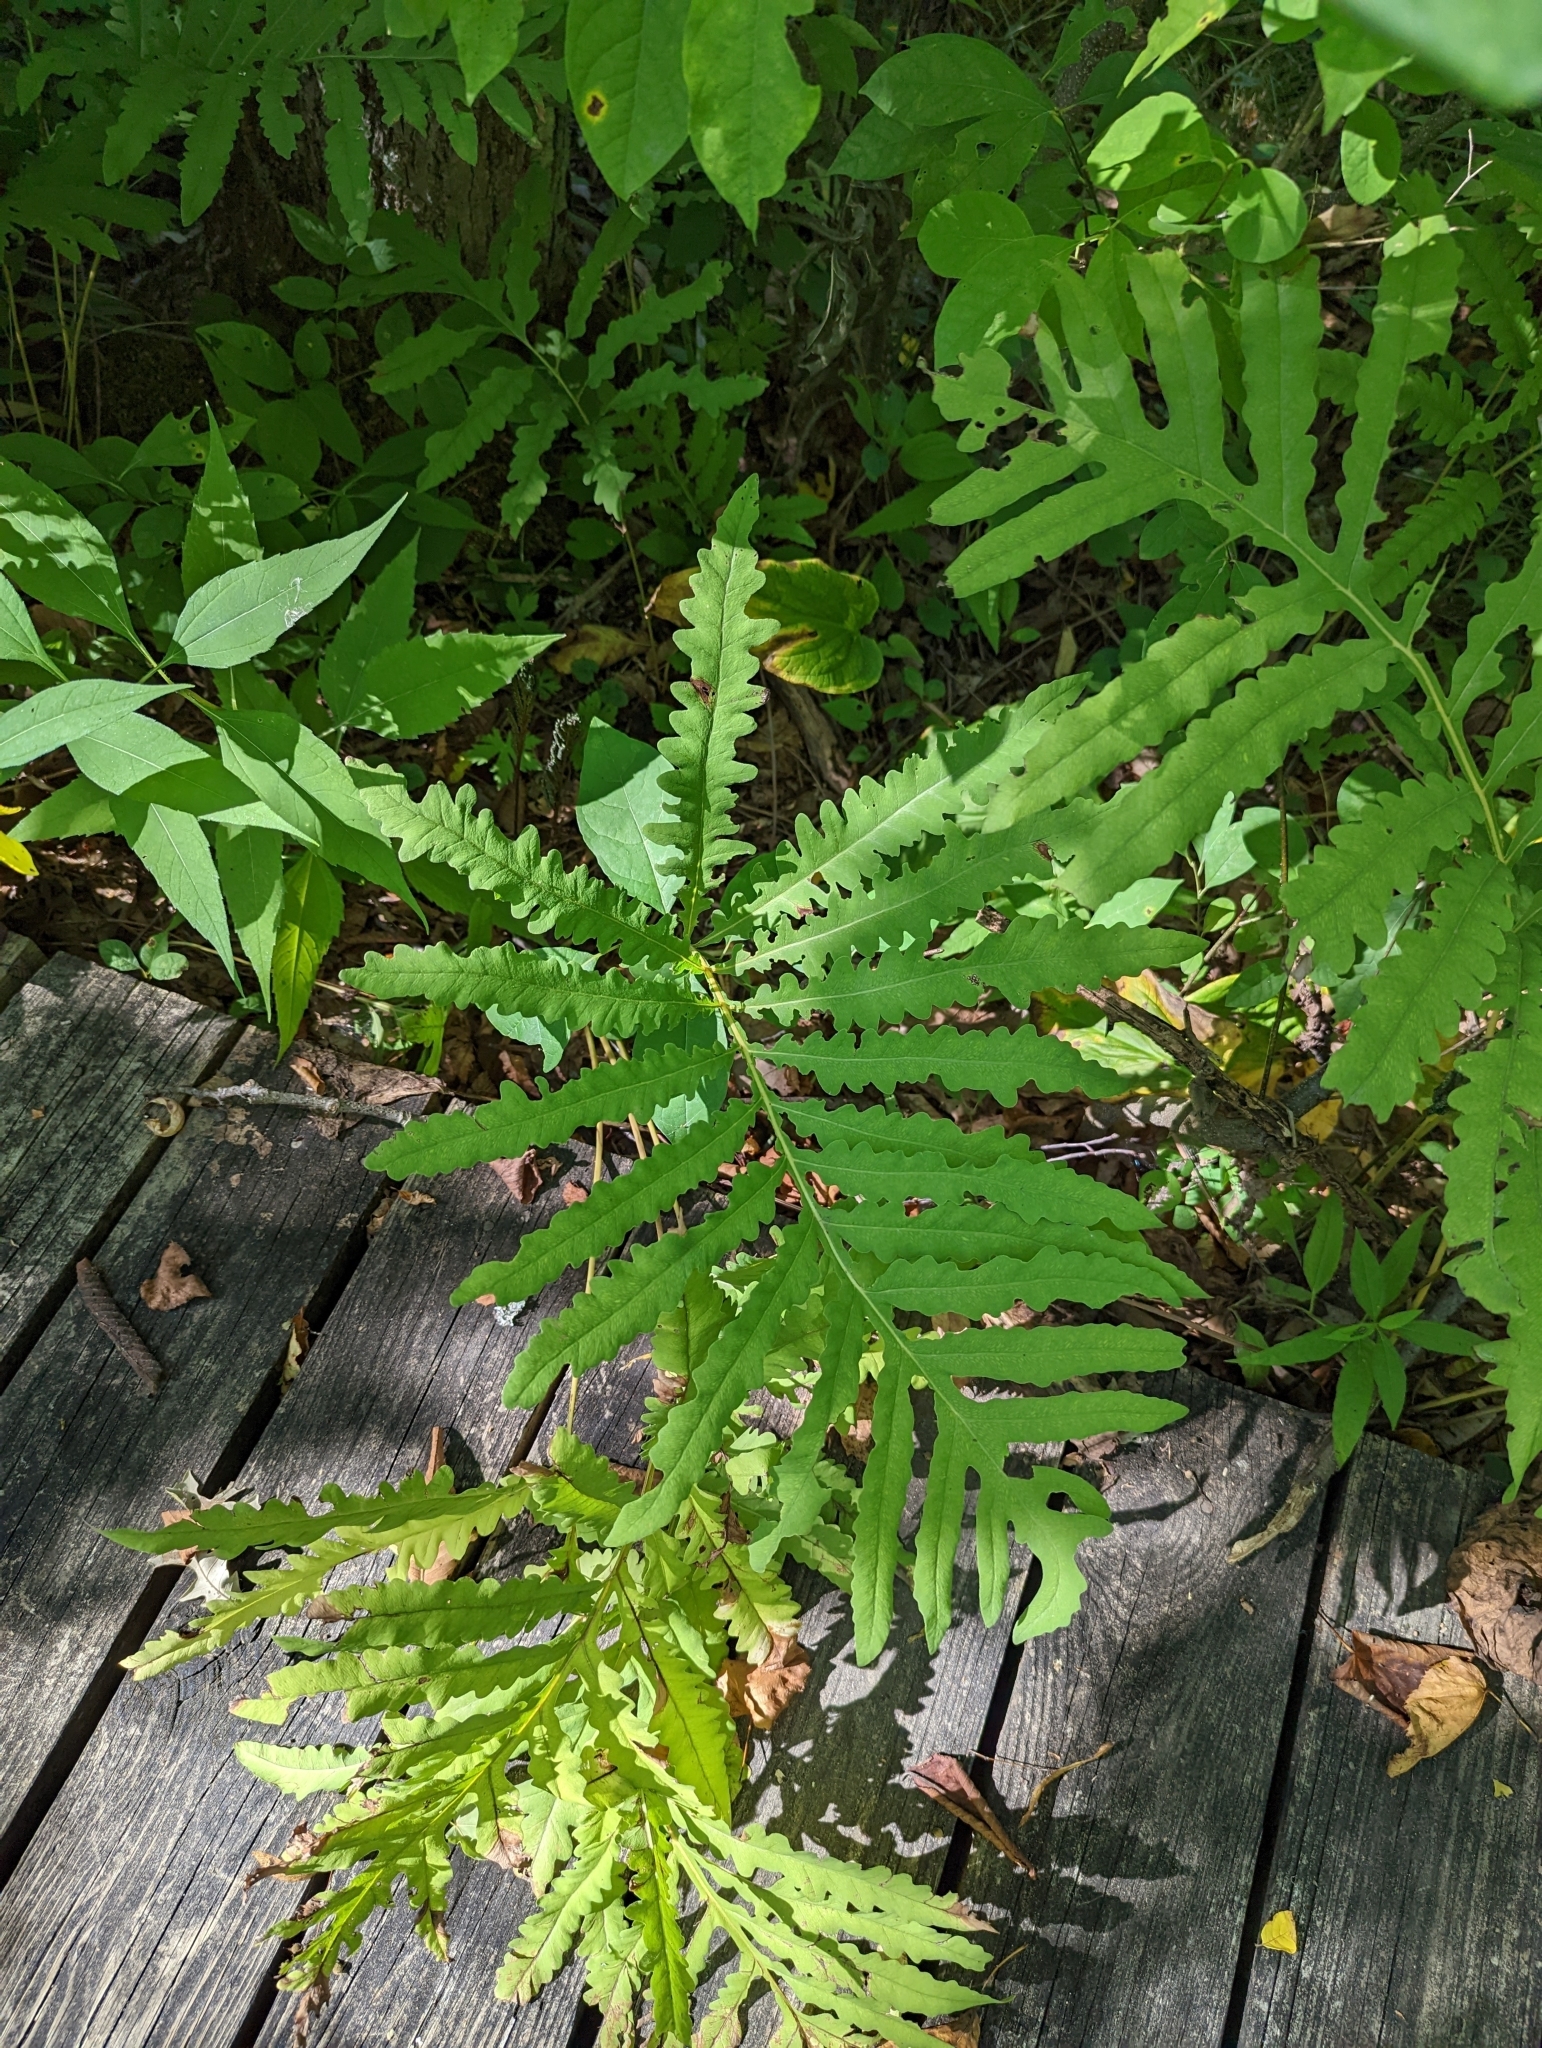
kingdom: Plantae
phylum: Tracheophyta
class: Polypodiopsida
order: Polypodiales
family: Onocleaceae
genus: Onoclea
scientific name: Onoclea sensibilis
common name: Sensitive fern
